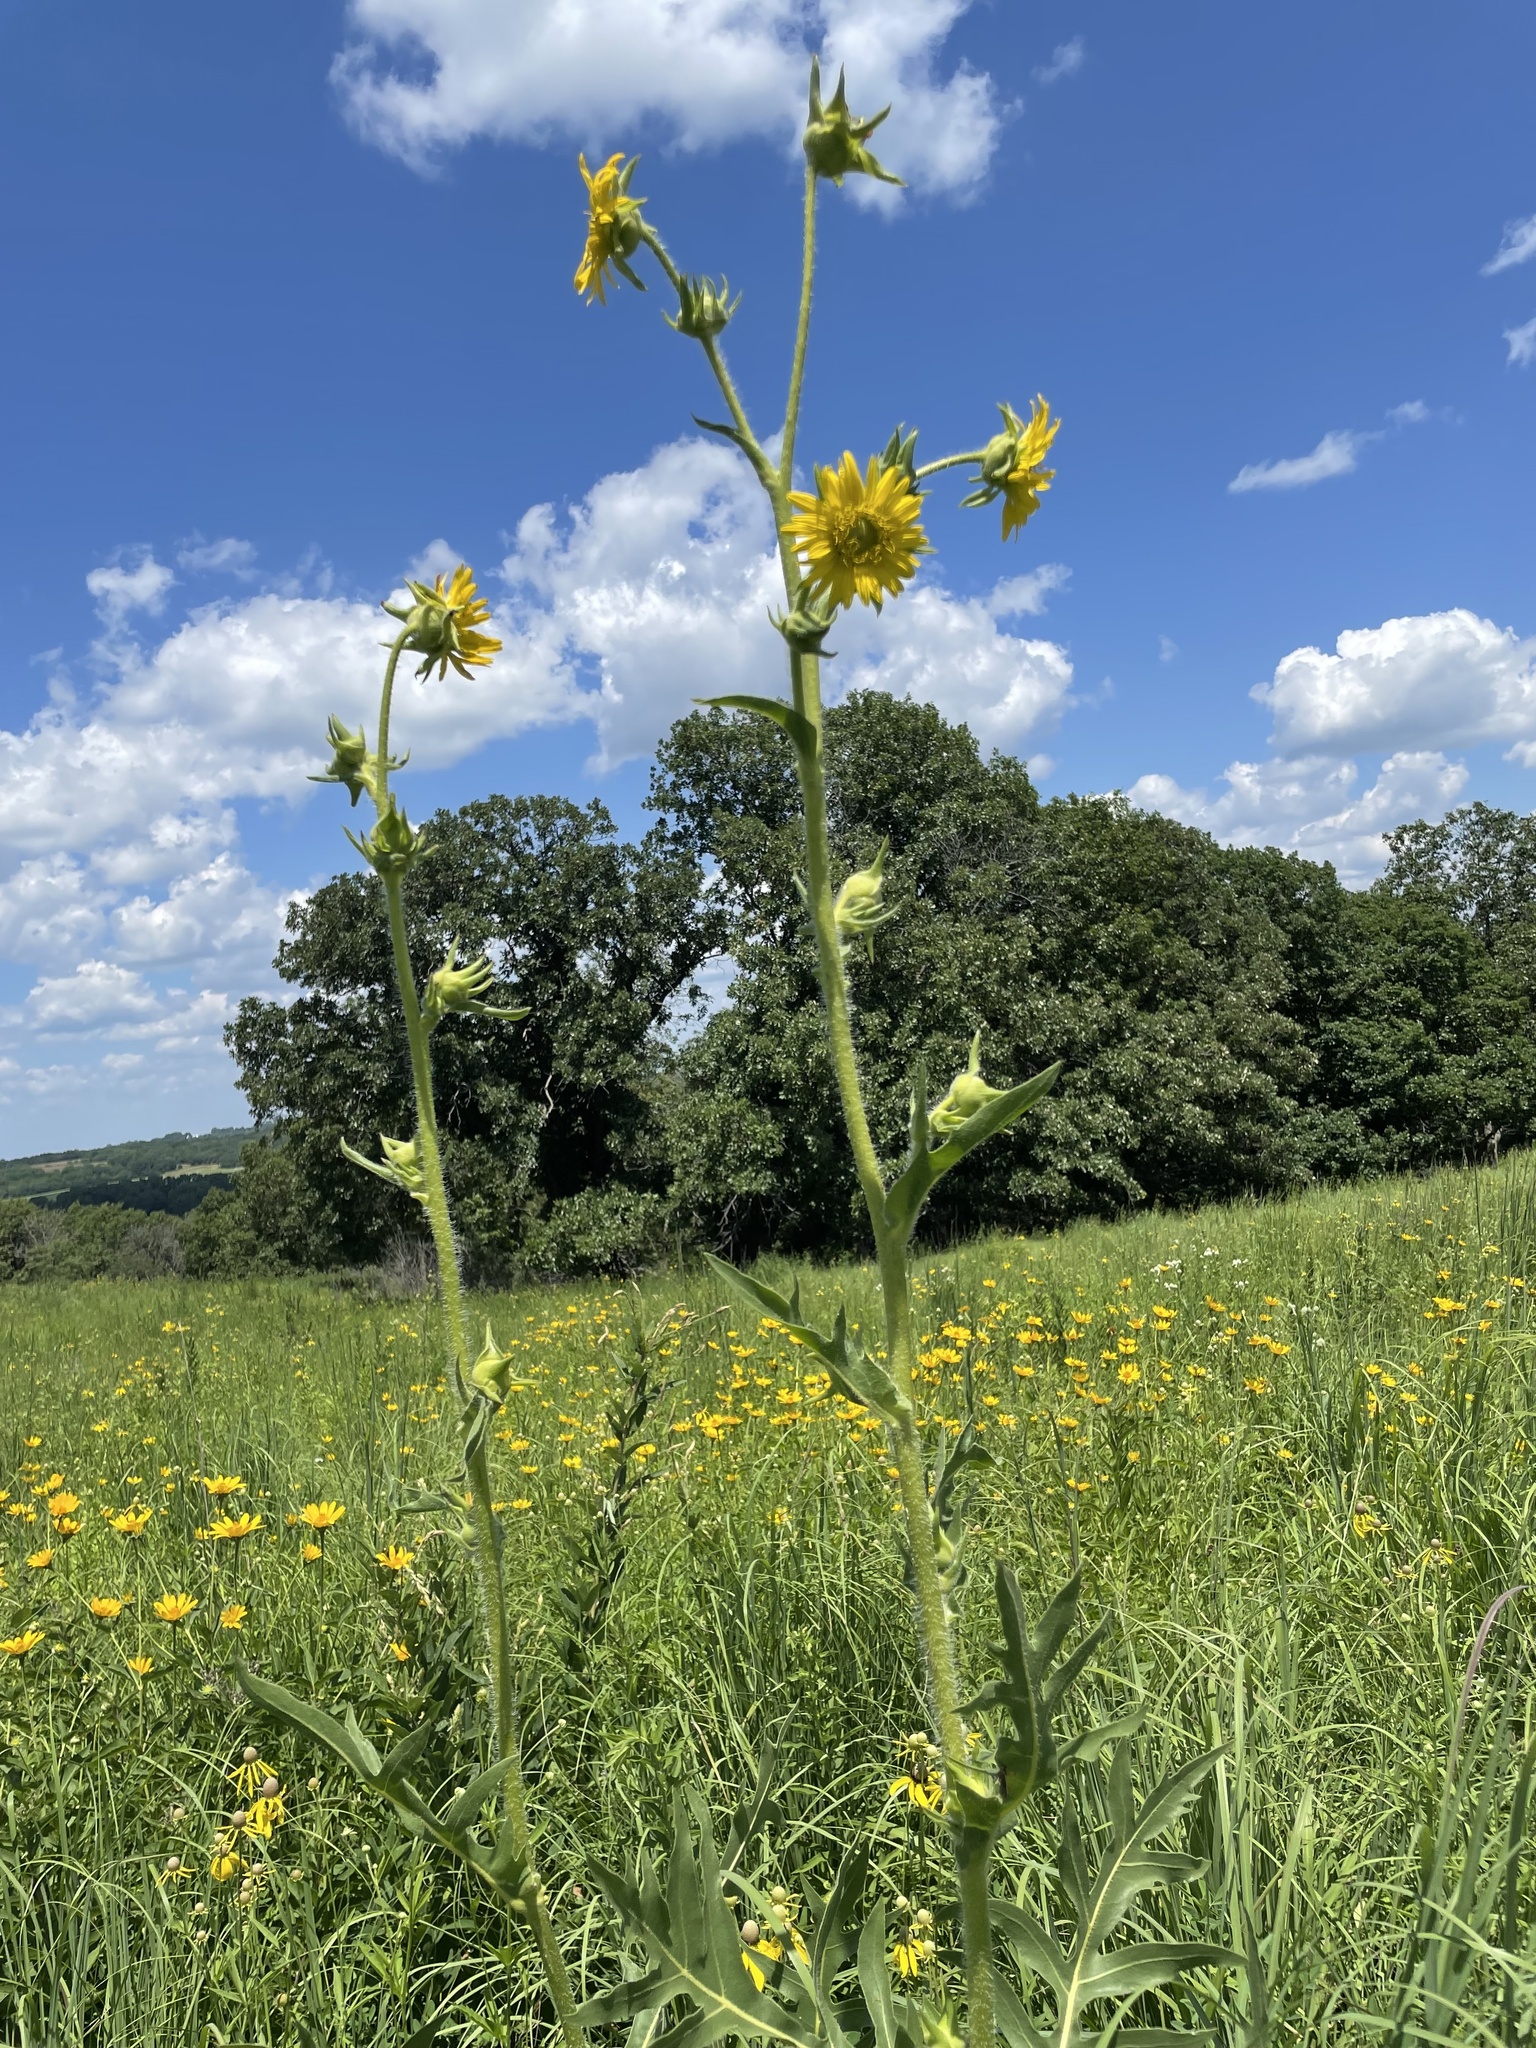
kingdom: Plantae
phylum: Tracheophyta
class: Magnoliopsida
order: Asterales
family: Asteraceae
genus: Silphium
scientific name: Silphium laciniatum
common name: Polarplant
